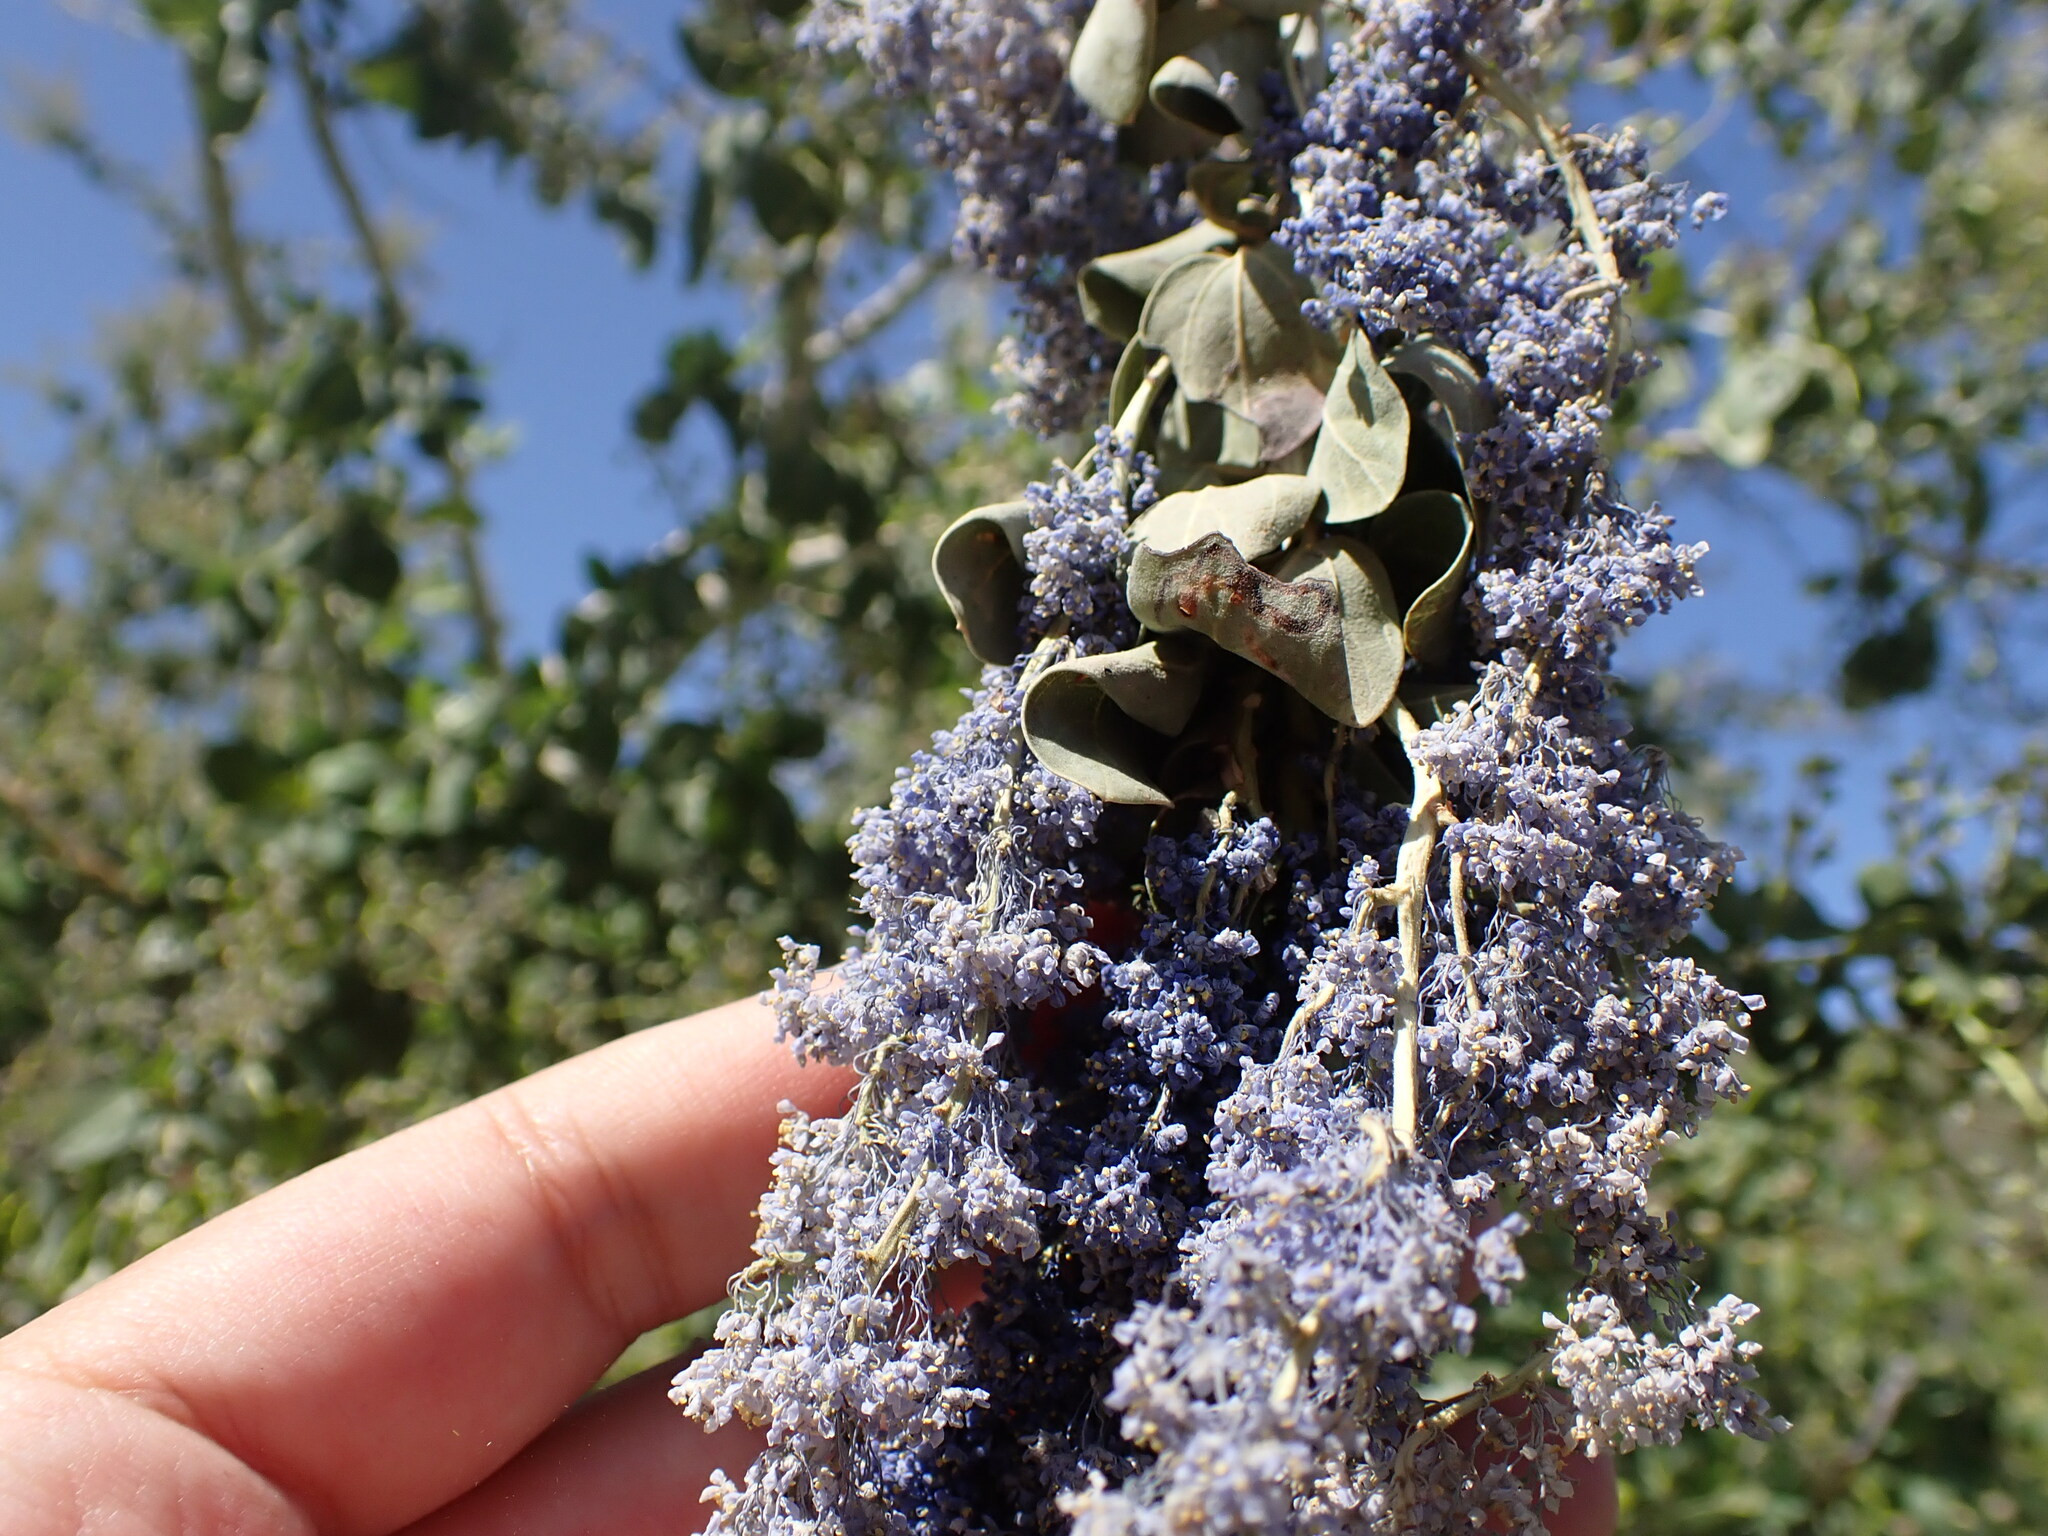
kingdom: Plantae
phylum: Tracheophyta
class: Magnoliopsida
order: Rosales
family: Rhamnaceae
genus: Ceanothus
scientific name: Ceanothus leucodermis
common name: Chaparral whitethorn
